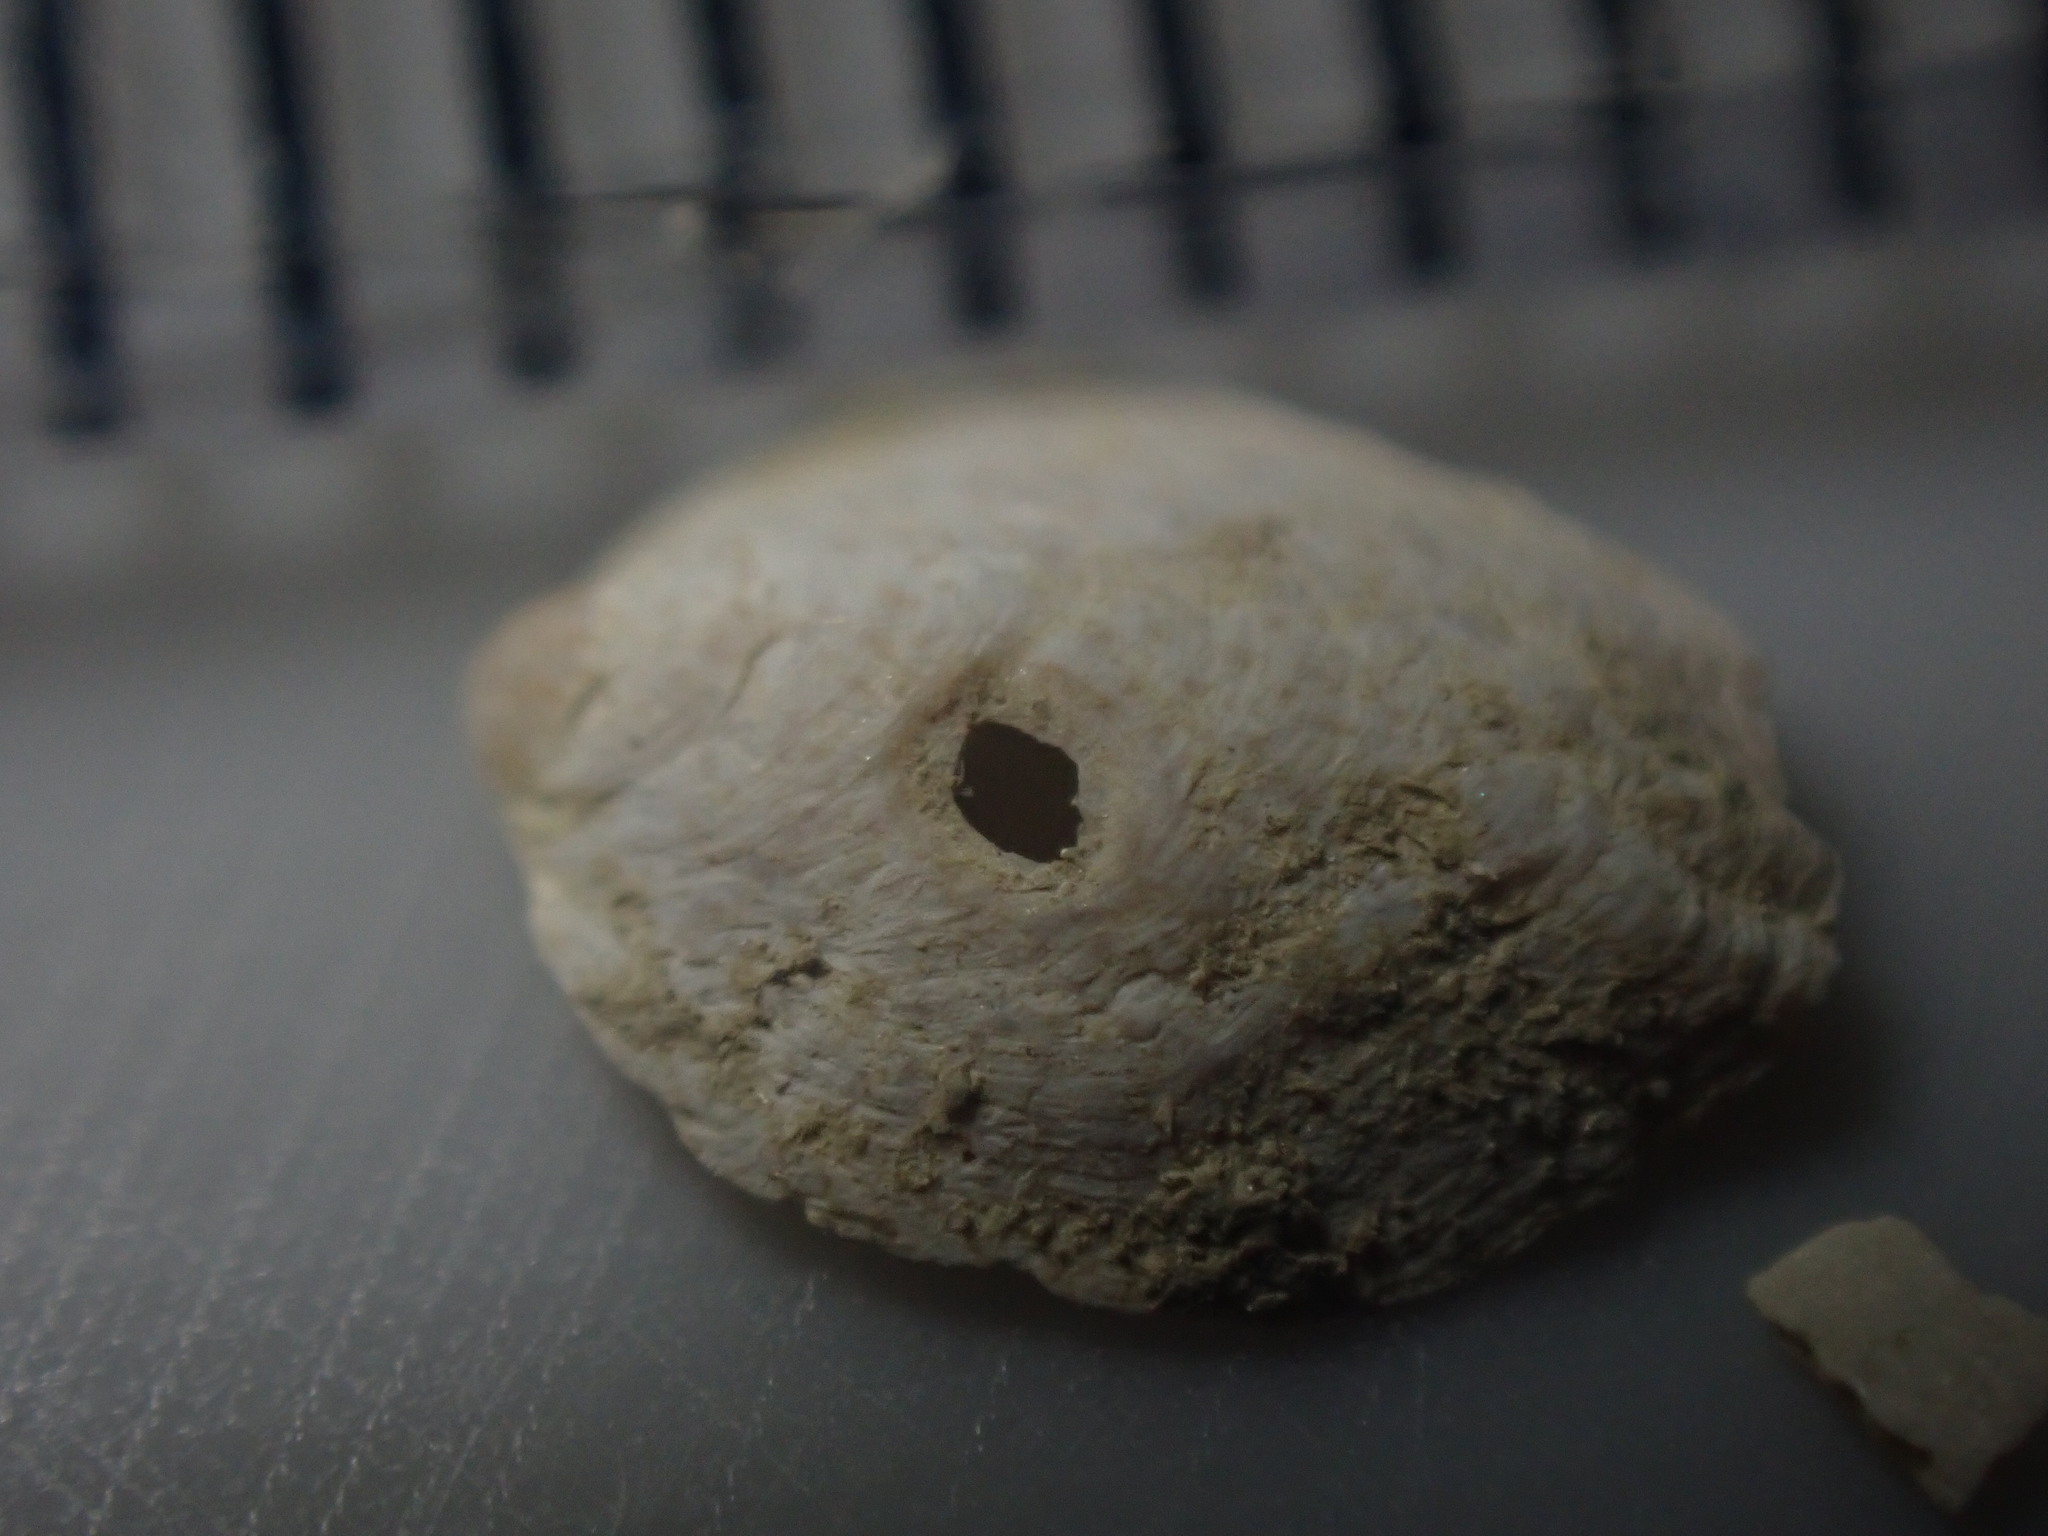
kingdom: Animalia
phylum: Mollusca
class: Gastropoda
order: Littorinimorpha
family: Calyptraeidae
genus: Maoricrypta
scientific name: Maoricrypta costata
